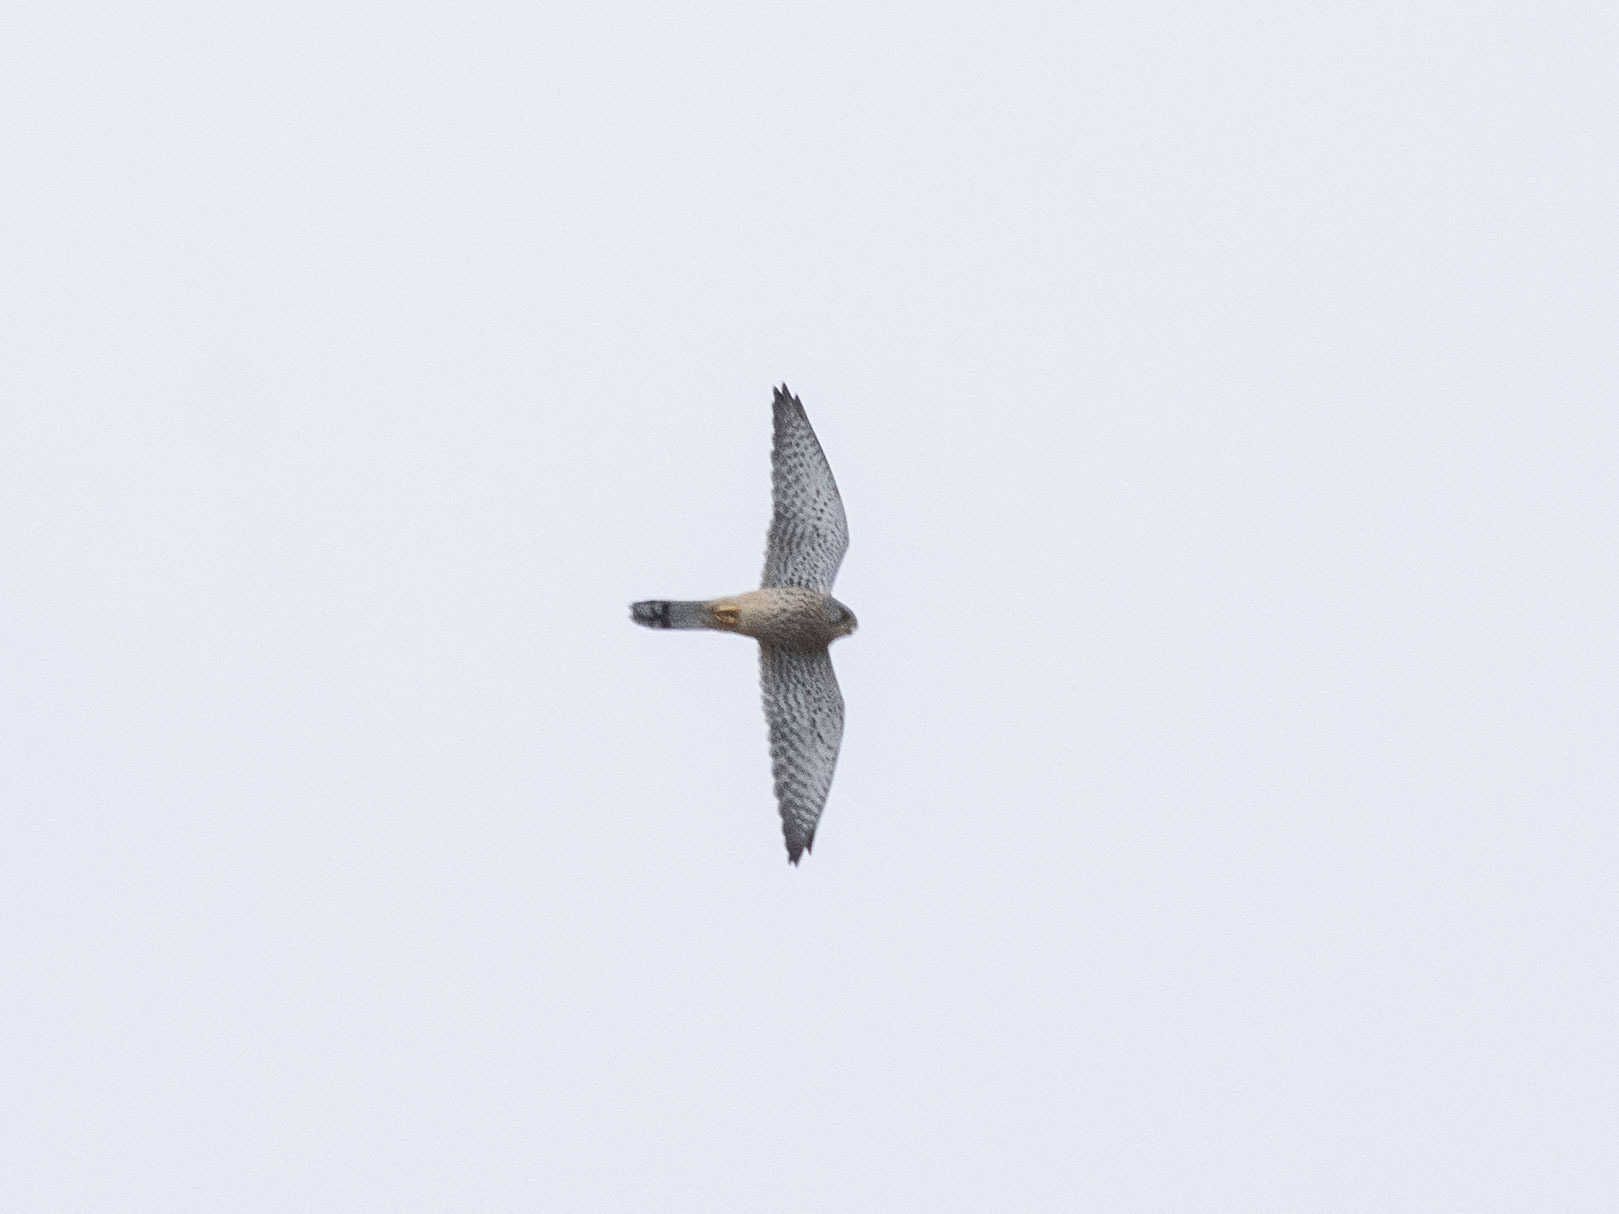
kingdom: Animalia
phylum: Chordata
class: Aves
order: Falconiformes
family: Falconidae
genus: Falco
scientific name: Falco tinnunculus
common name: Common kestrel
